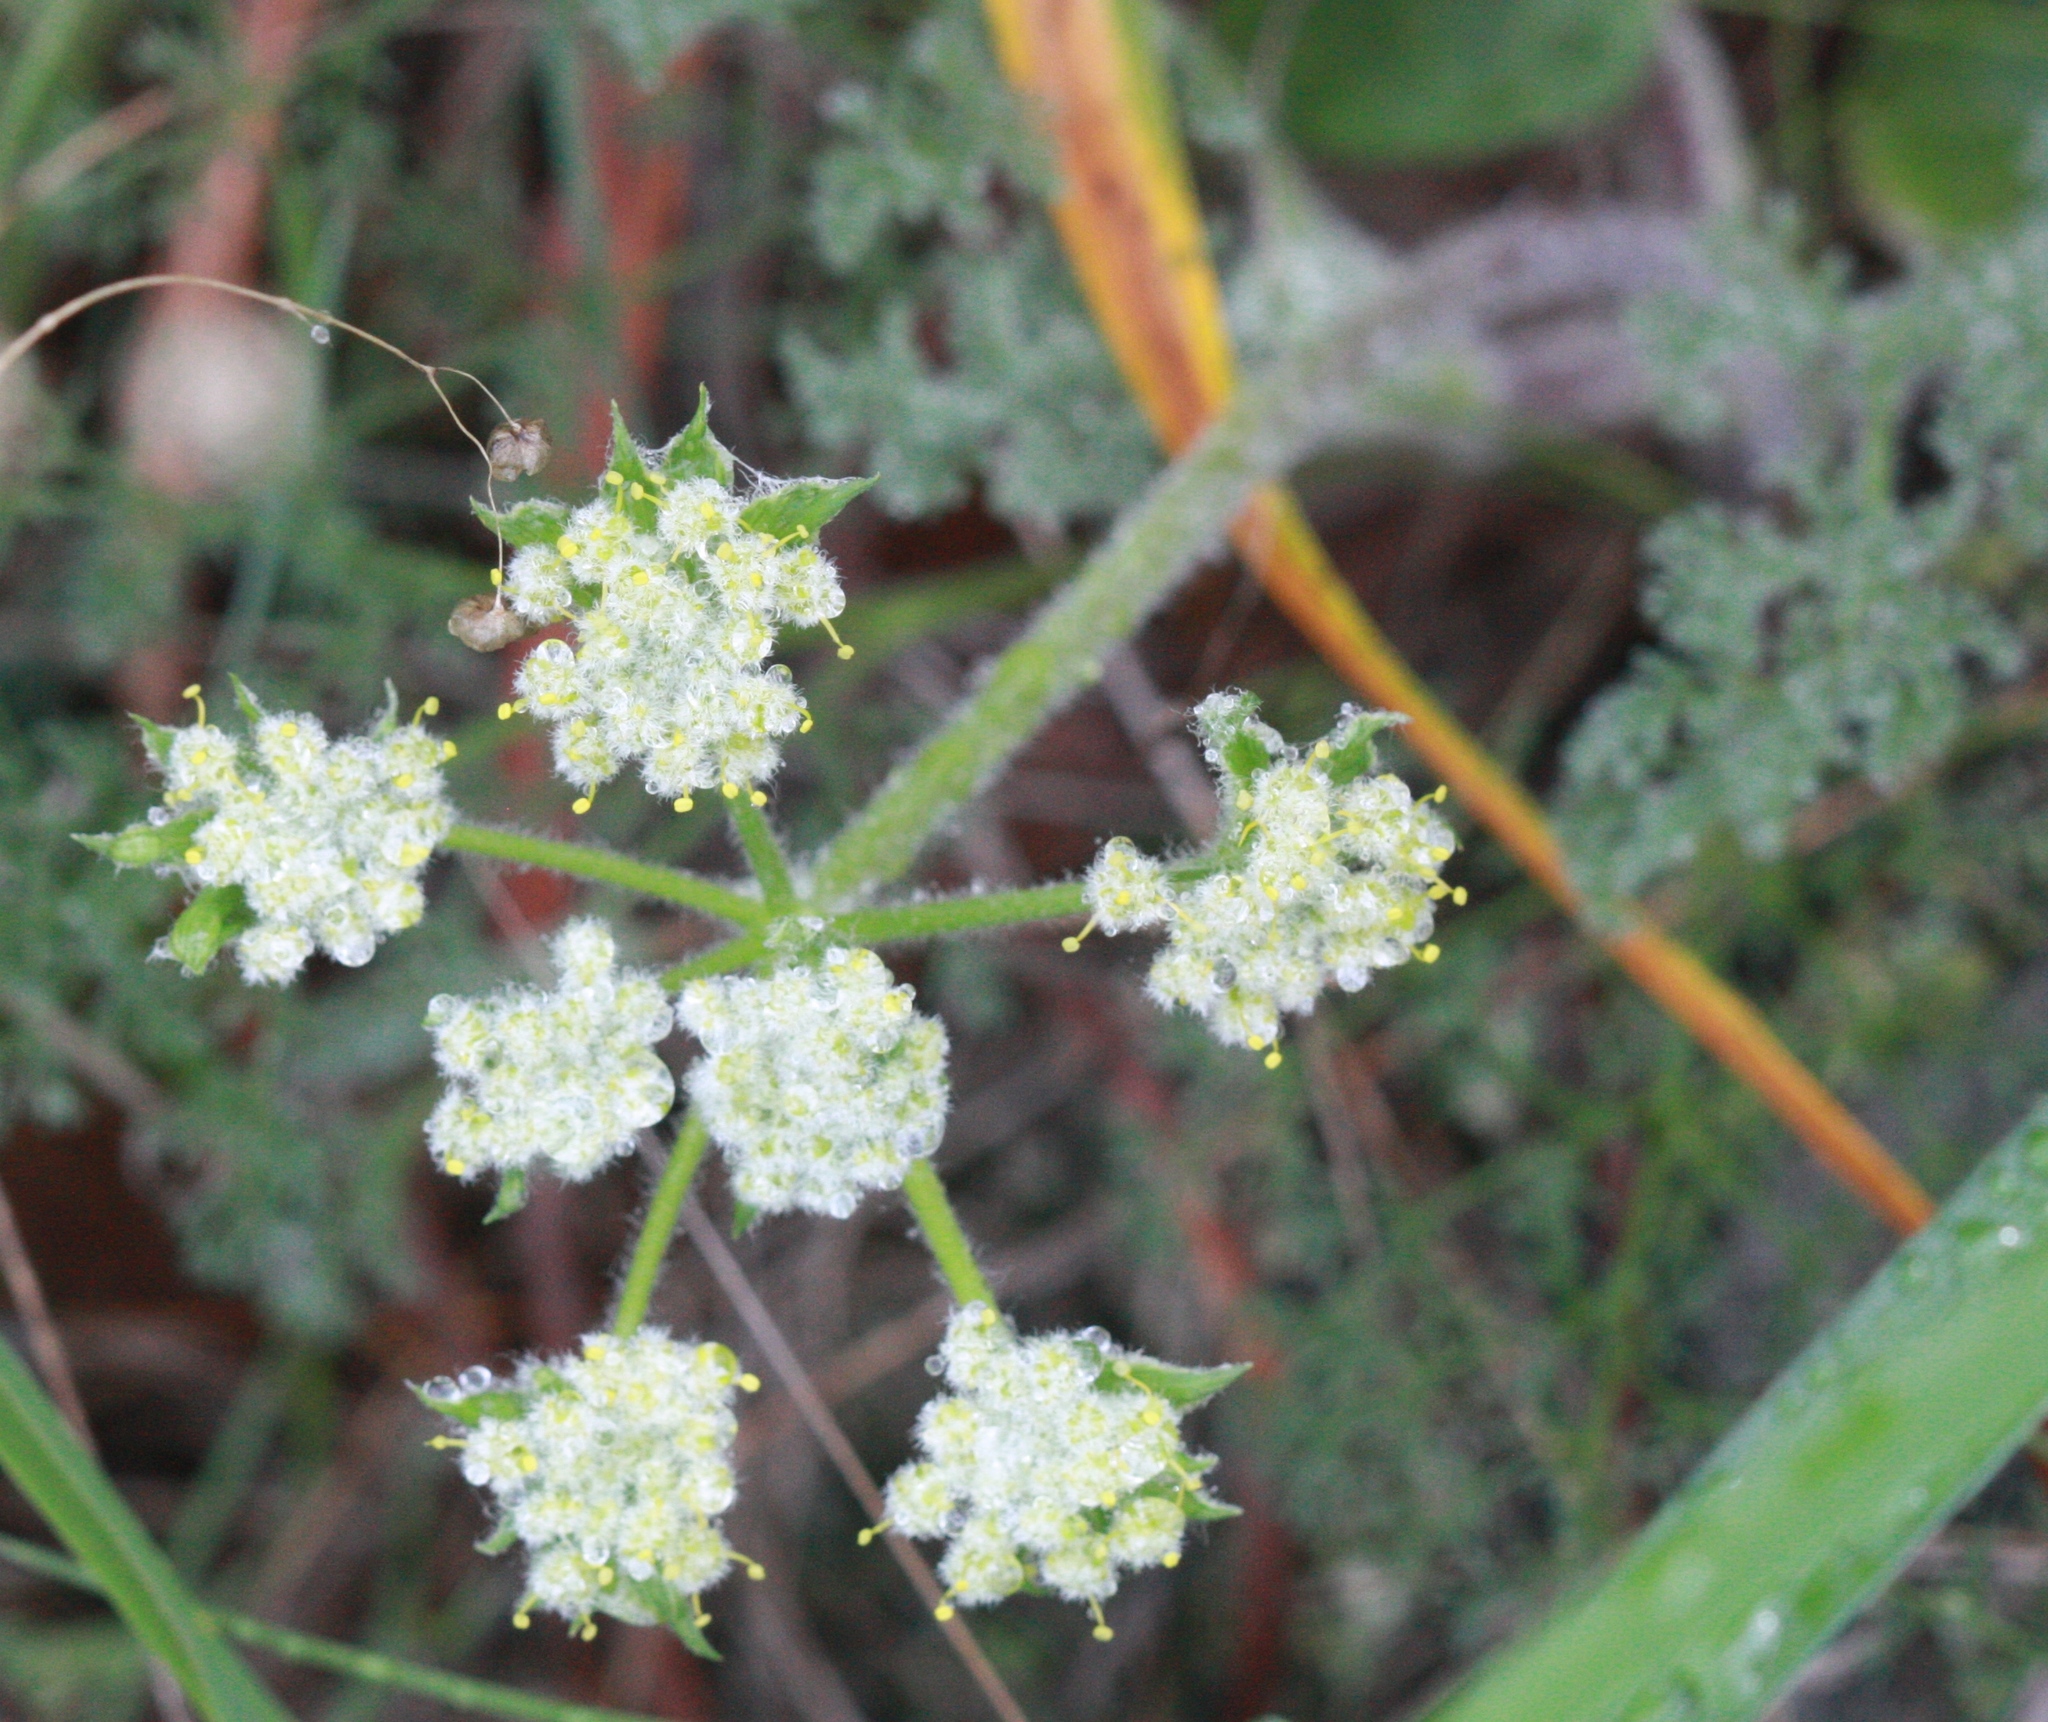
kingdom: Plantae
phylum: Tracheophyta
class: Magnoliopsida
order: Apiales
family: Apiaceae
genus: Lomatium
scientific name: Lomatium dasycarpum
